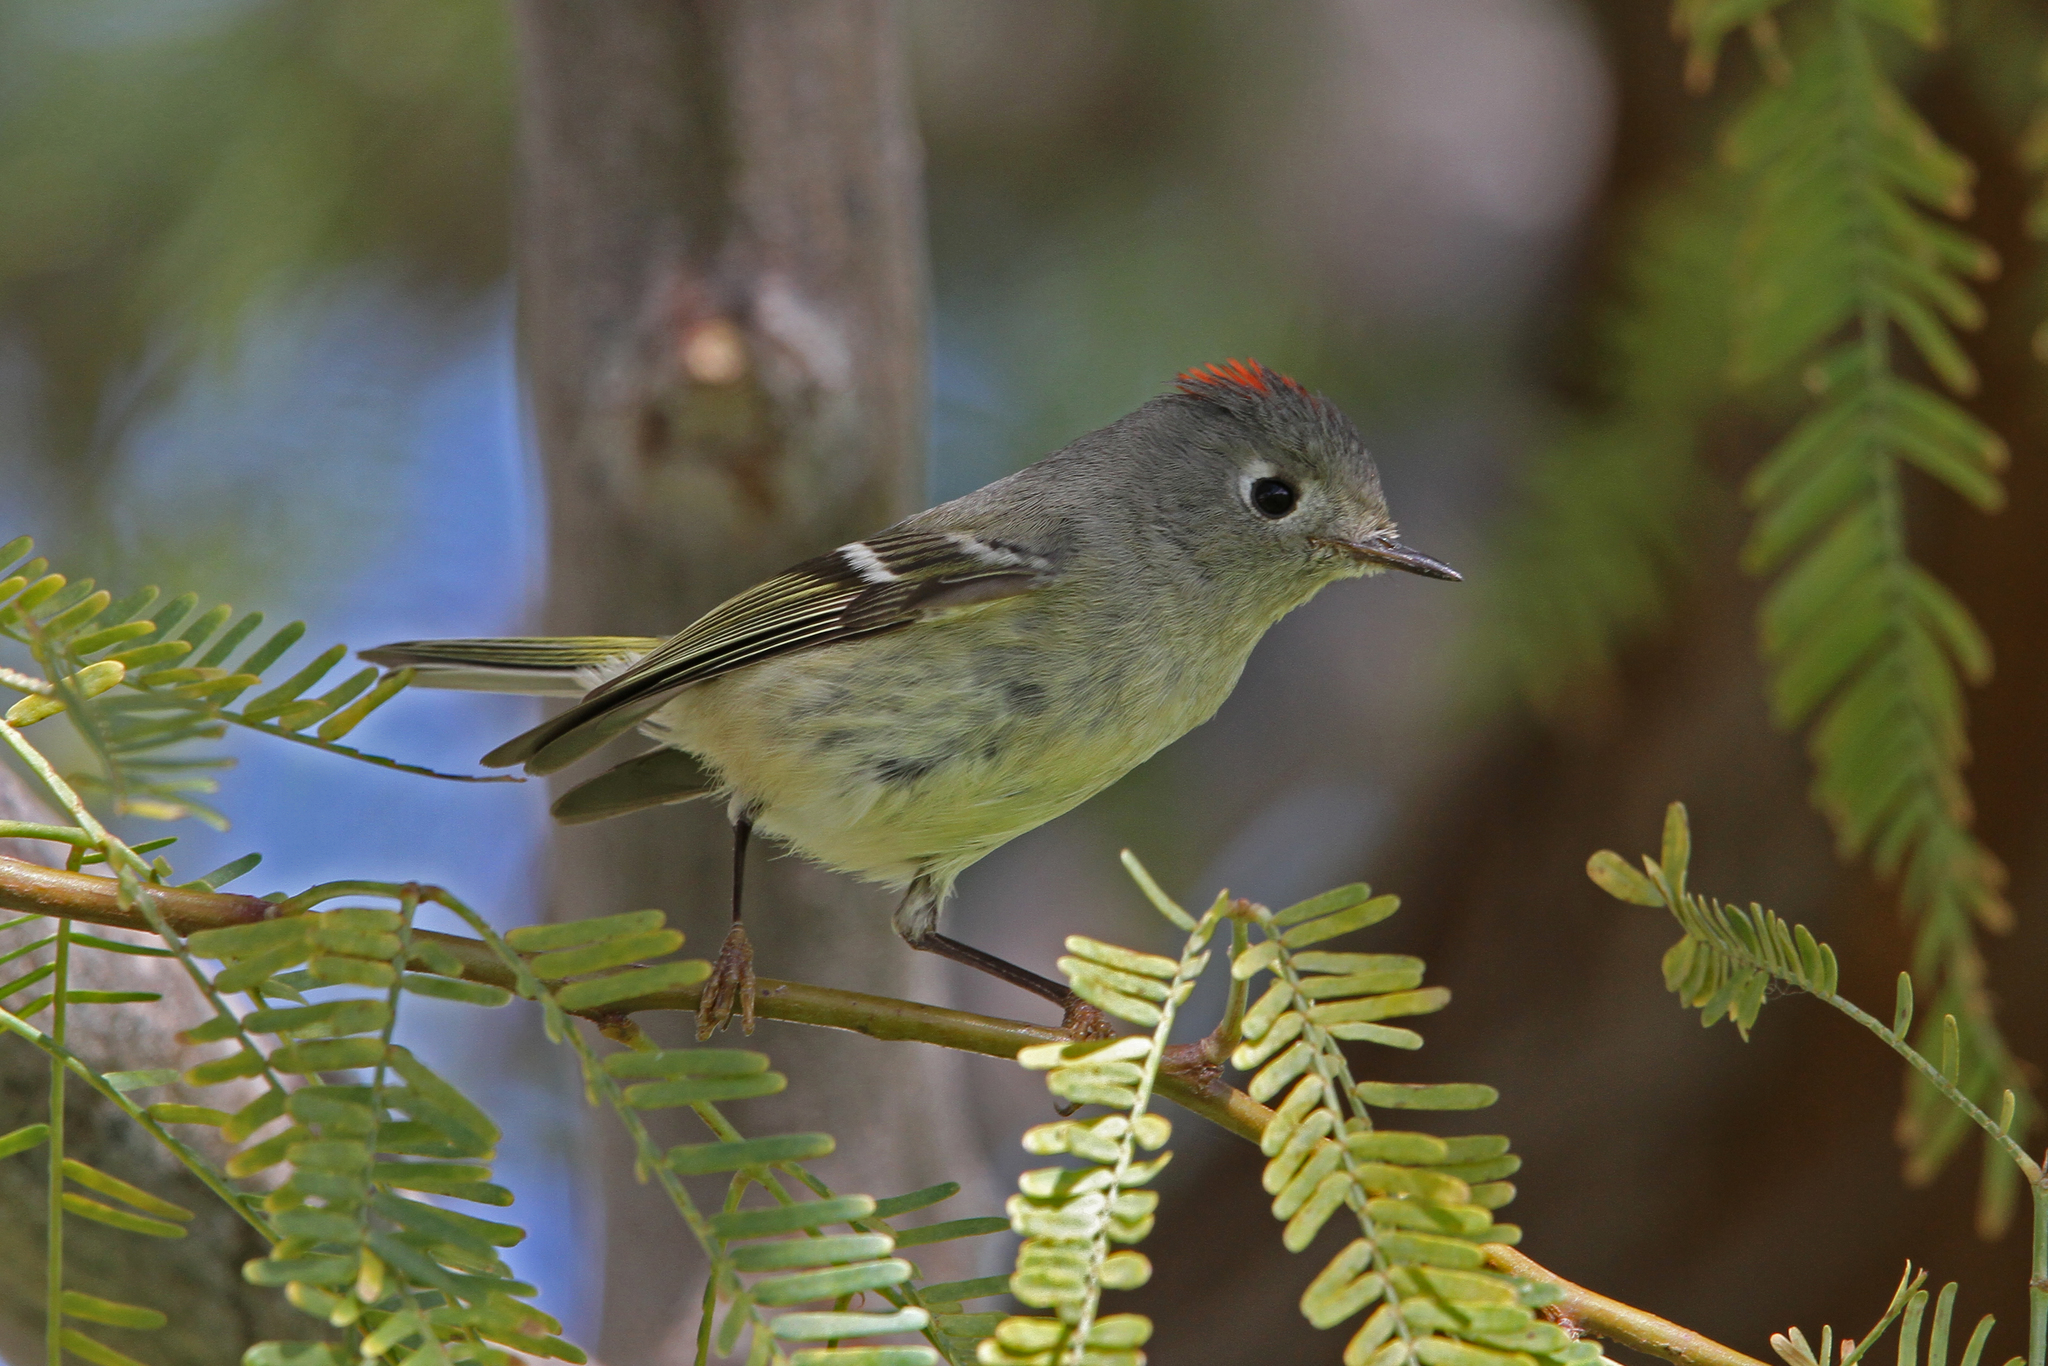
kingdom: Animalia
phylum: Chordata
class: Aves
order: Passeriformes
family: Regulidae
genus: Regulus
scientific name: Regulus calendula
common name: Ruby-crowned kinglet
